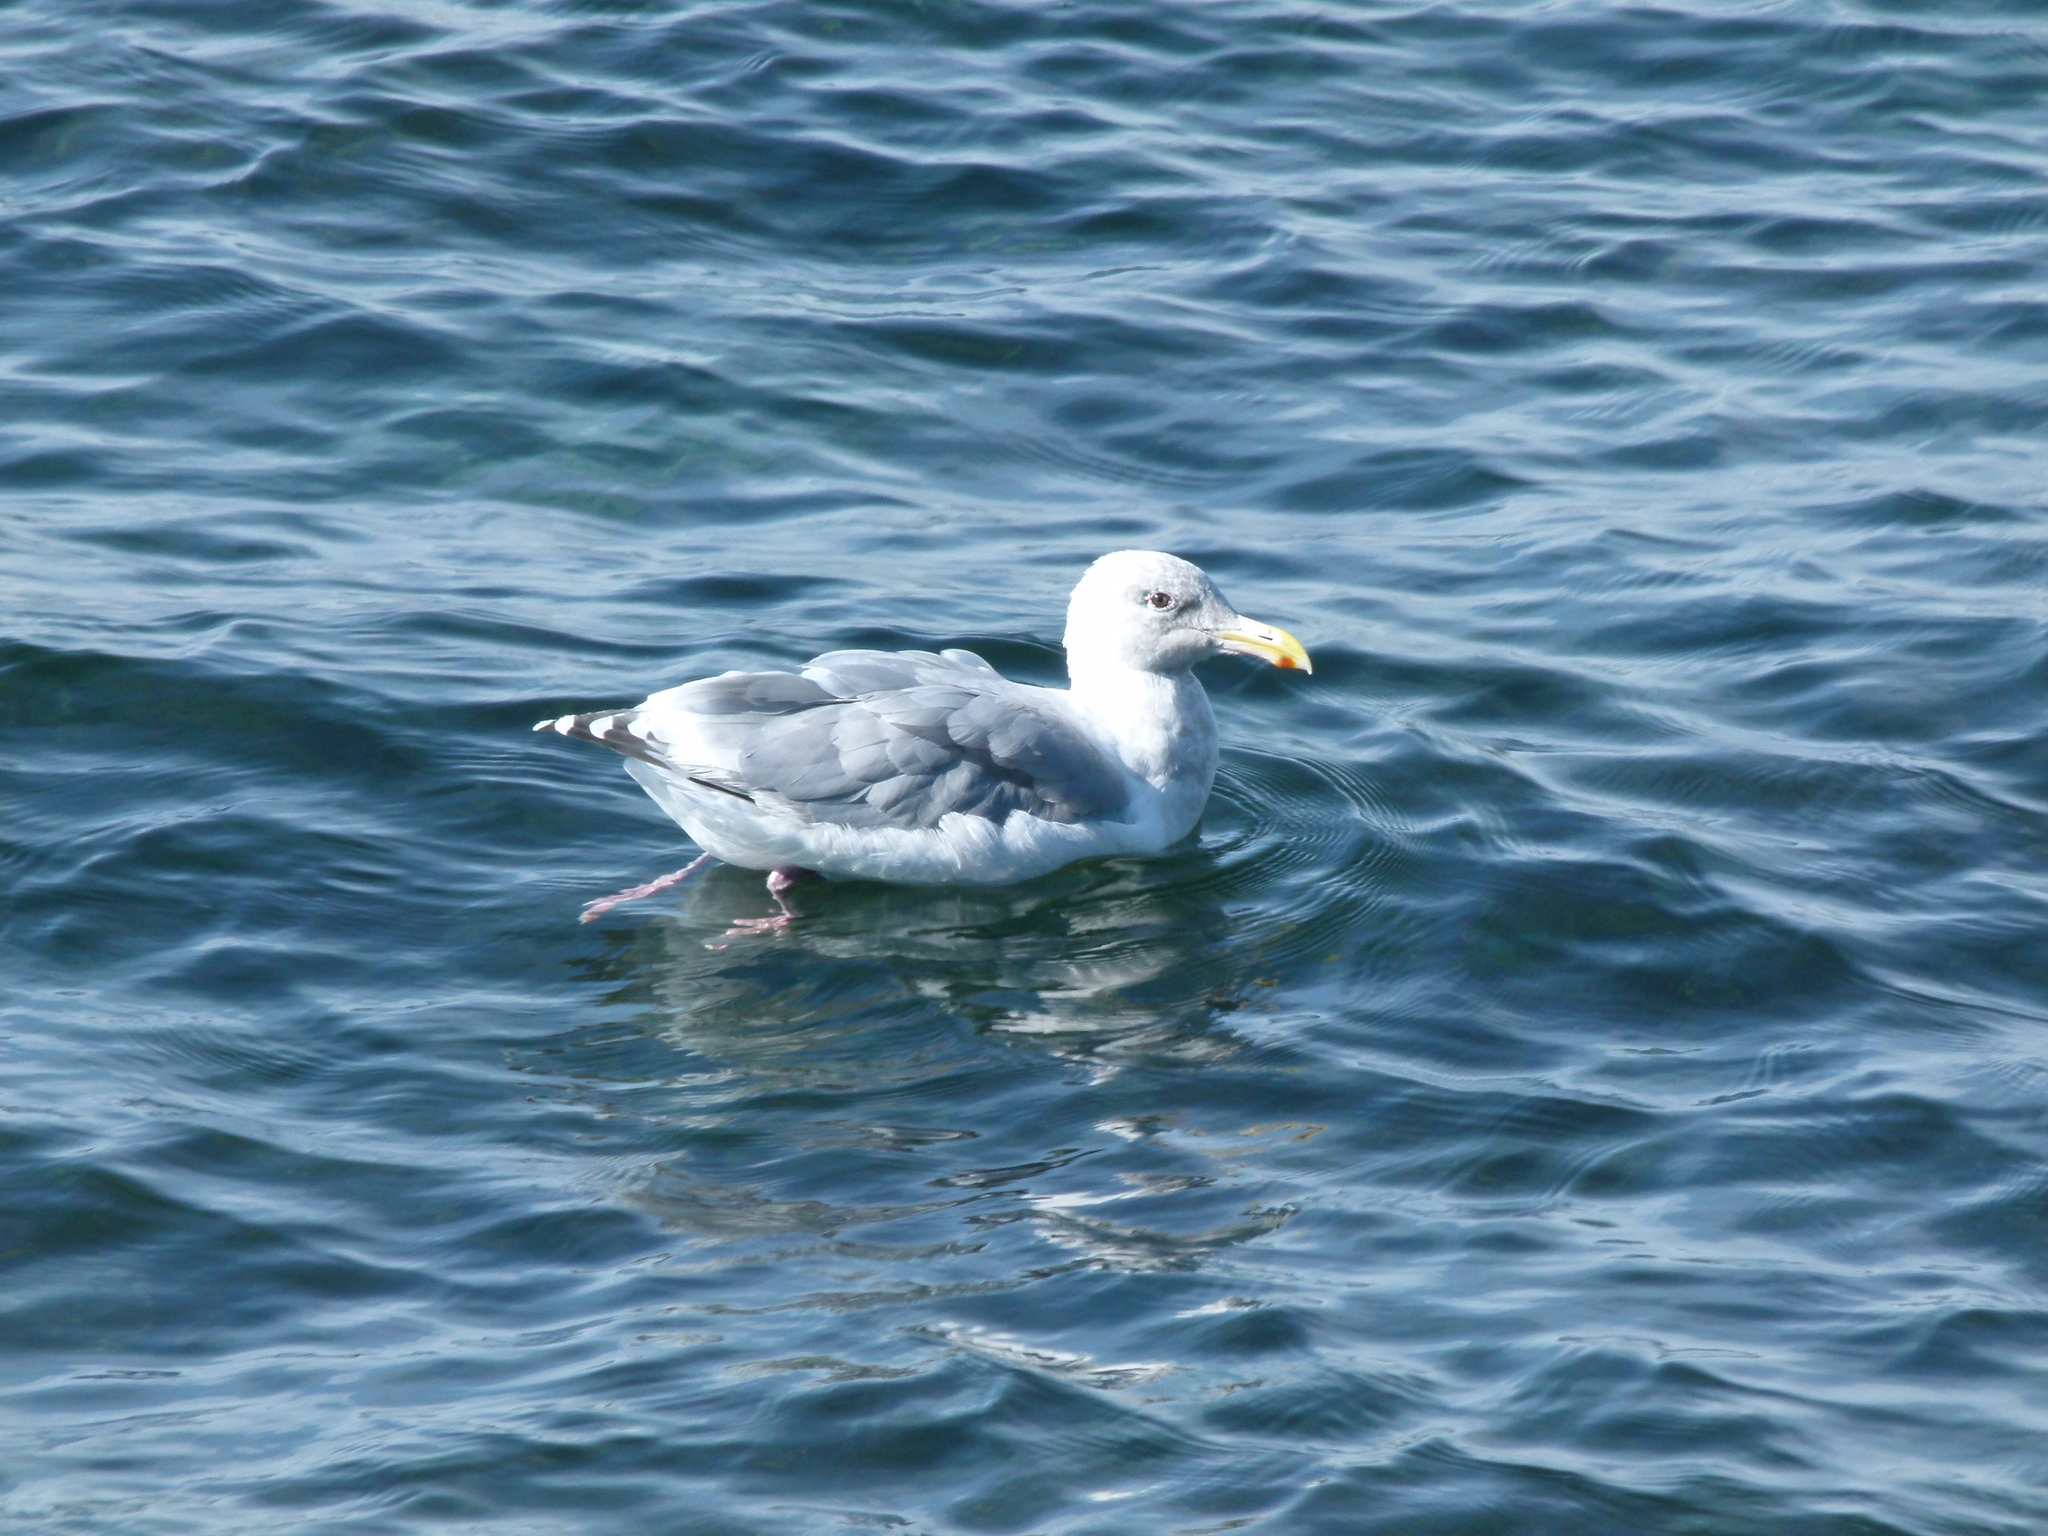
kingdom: Animalia
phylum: Chordata
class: Aves
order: Charadriiformes
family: Laridae
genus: Larus
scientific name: Larus
